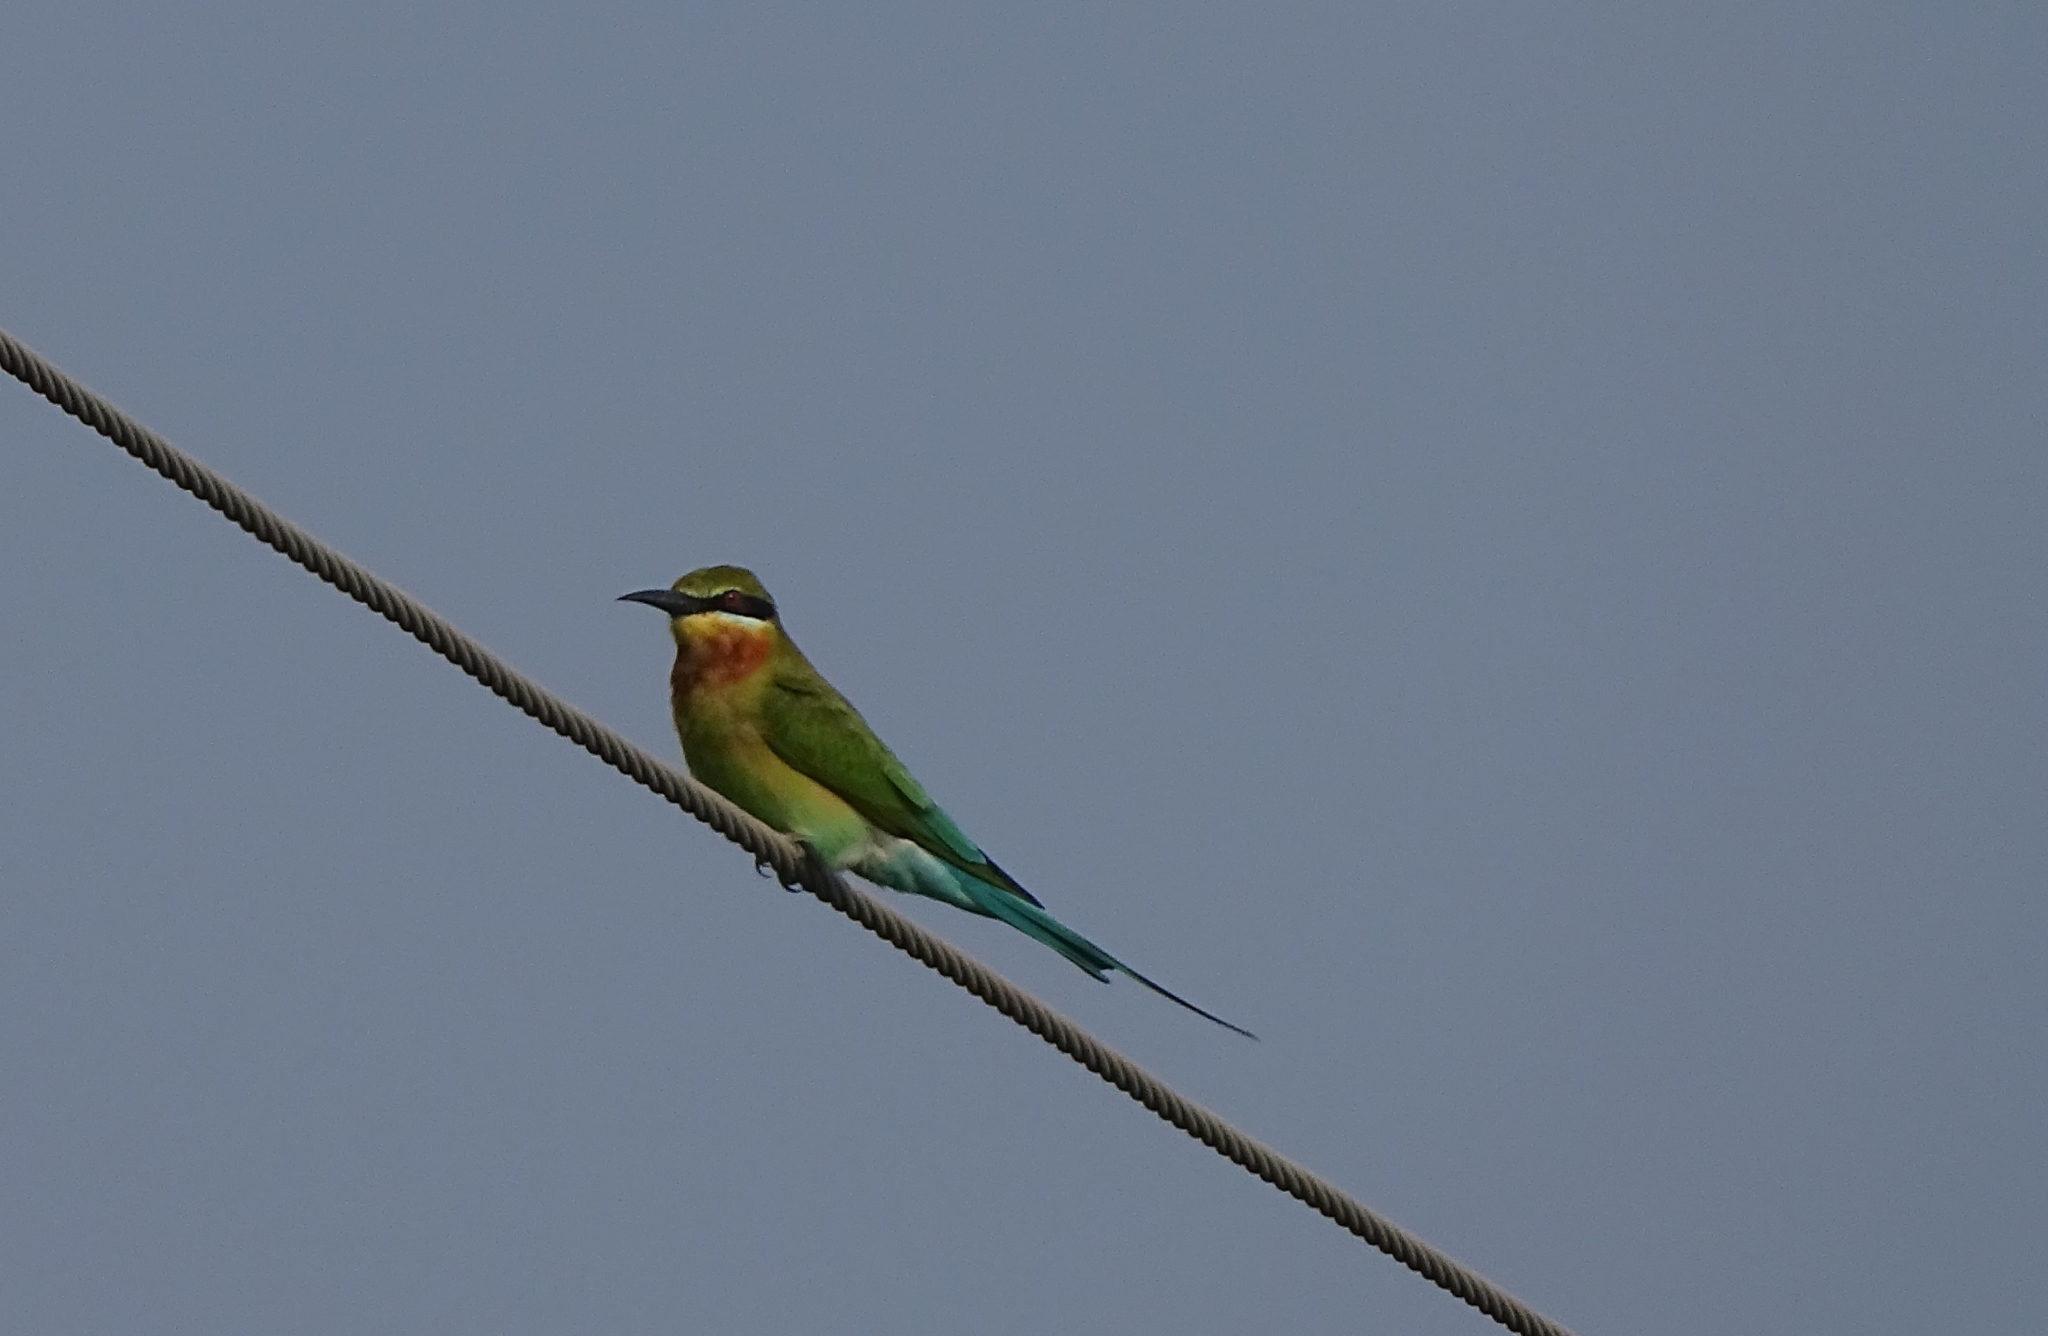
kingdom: Animalia
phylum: Chordata
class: Aves
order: Coraciiformes
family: Meropidae
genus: Merops
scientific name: Merops philippinus
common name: Blue-tailed bee-eater
